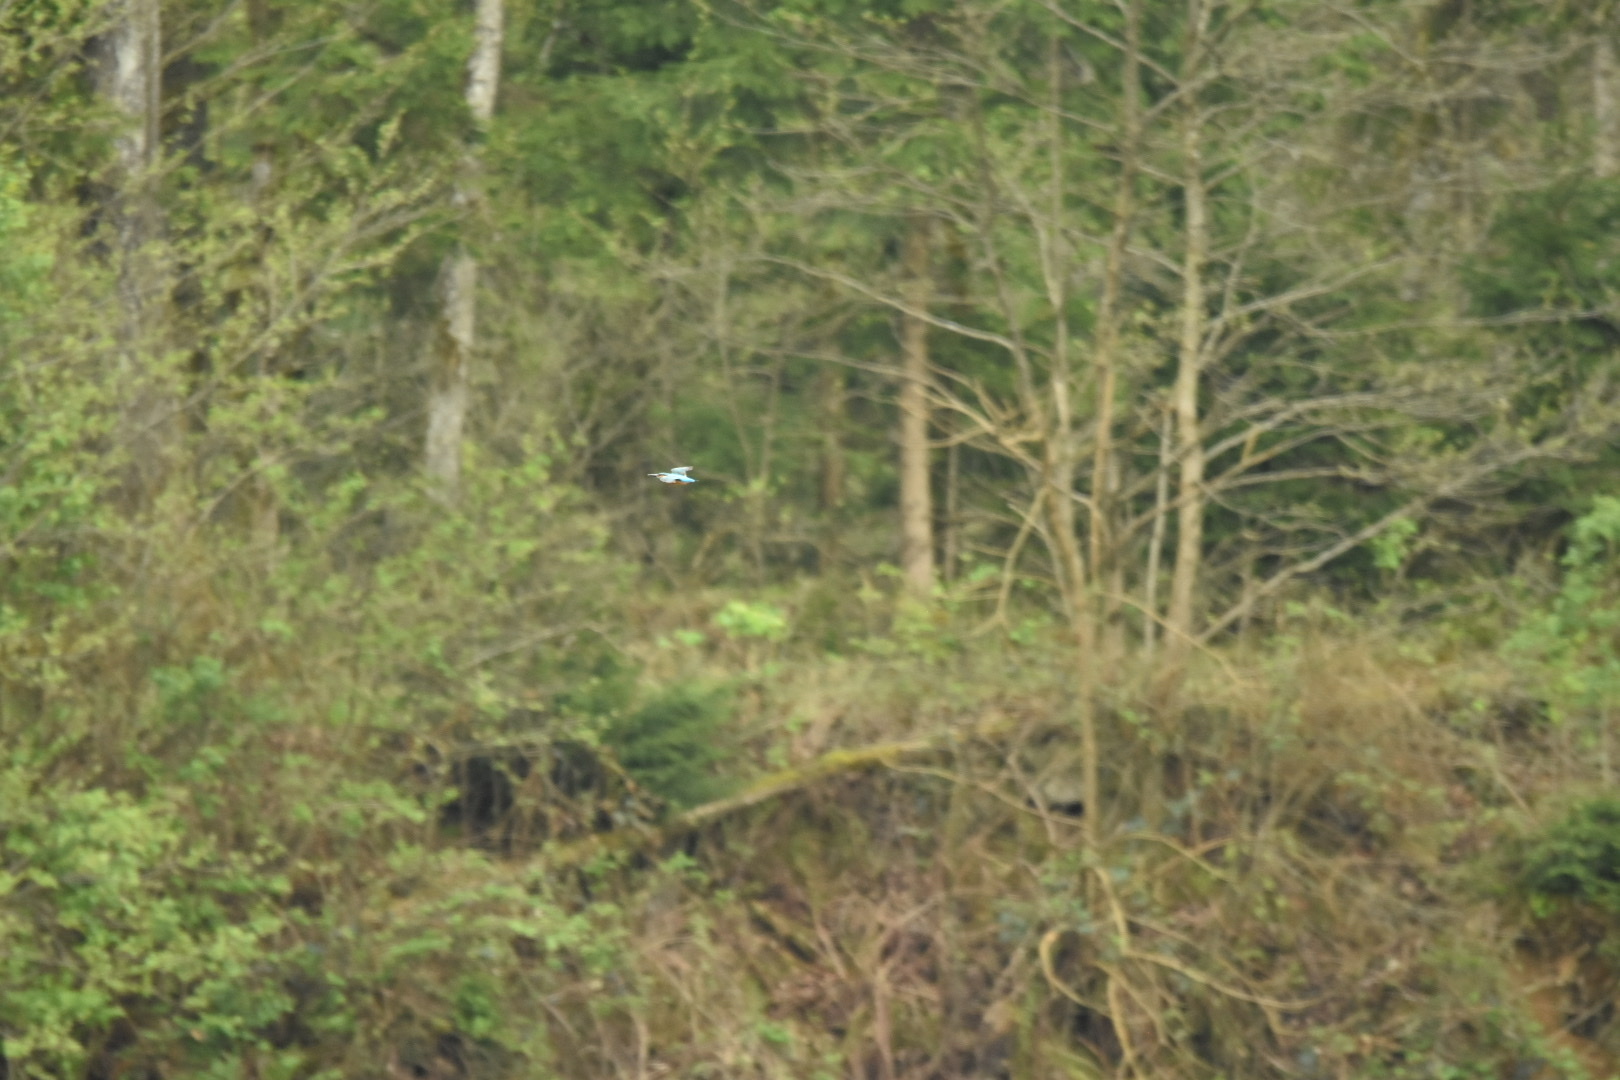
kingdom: Animalia
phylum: Chordata
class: Aves
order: Coraciiformes
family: Alcedinidae
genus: Alcedo
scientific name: Alcedo atthis
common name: Common kingfisher
